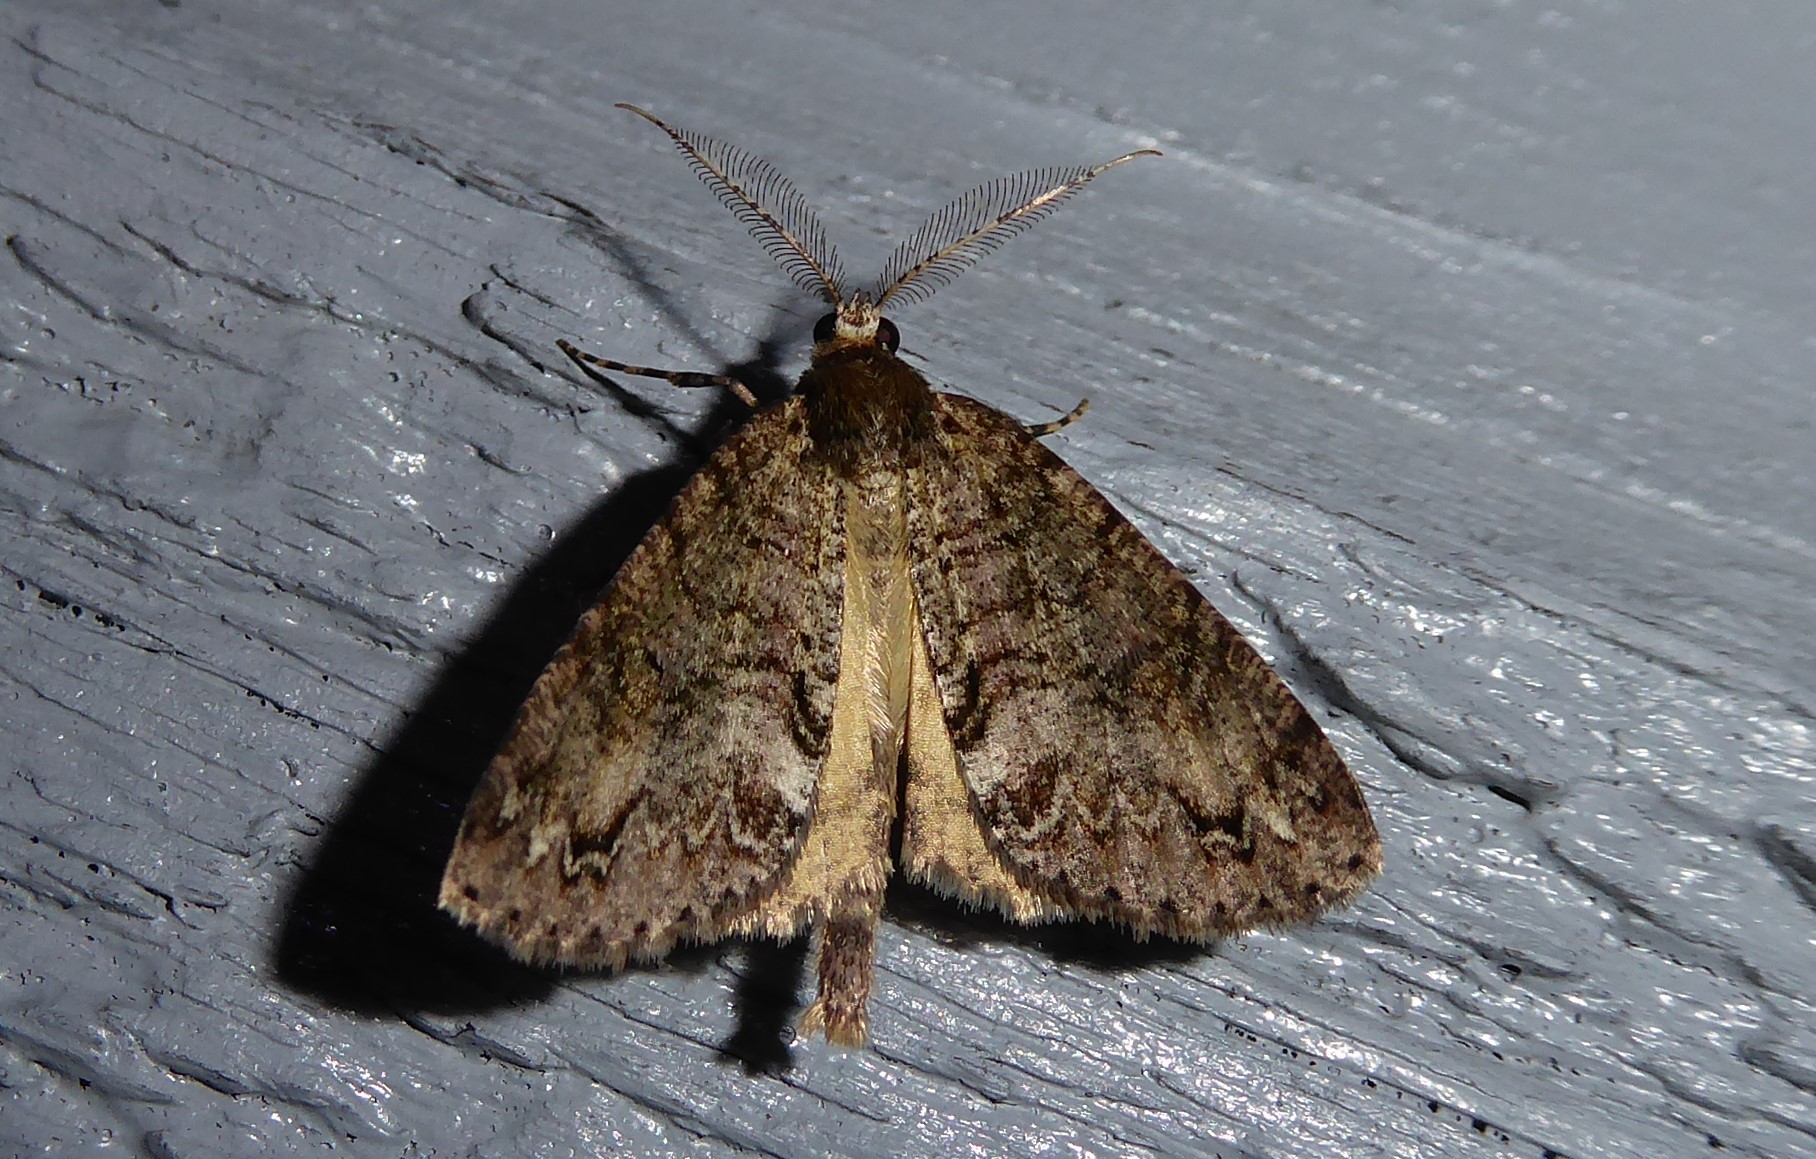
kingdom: Animalia
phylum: Arthropoda
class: Insecta
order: Lepidoptera
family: Geometridae
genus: Pseudocoremia
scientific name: Pseudocoremia suavis
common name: Common forest looper
